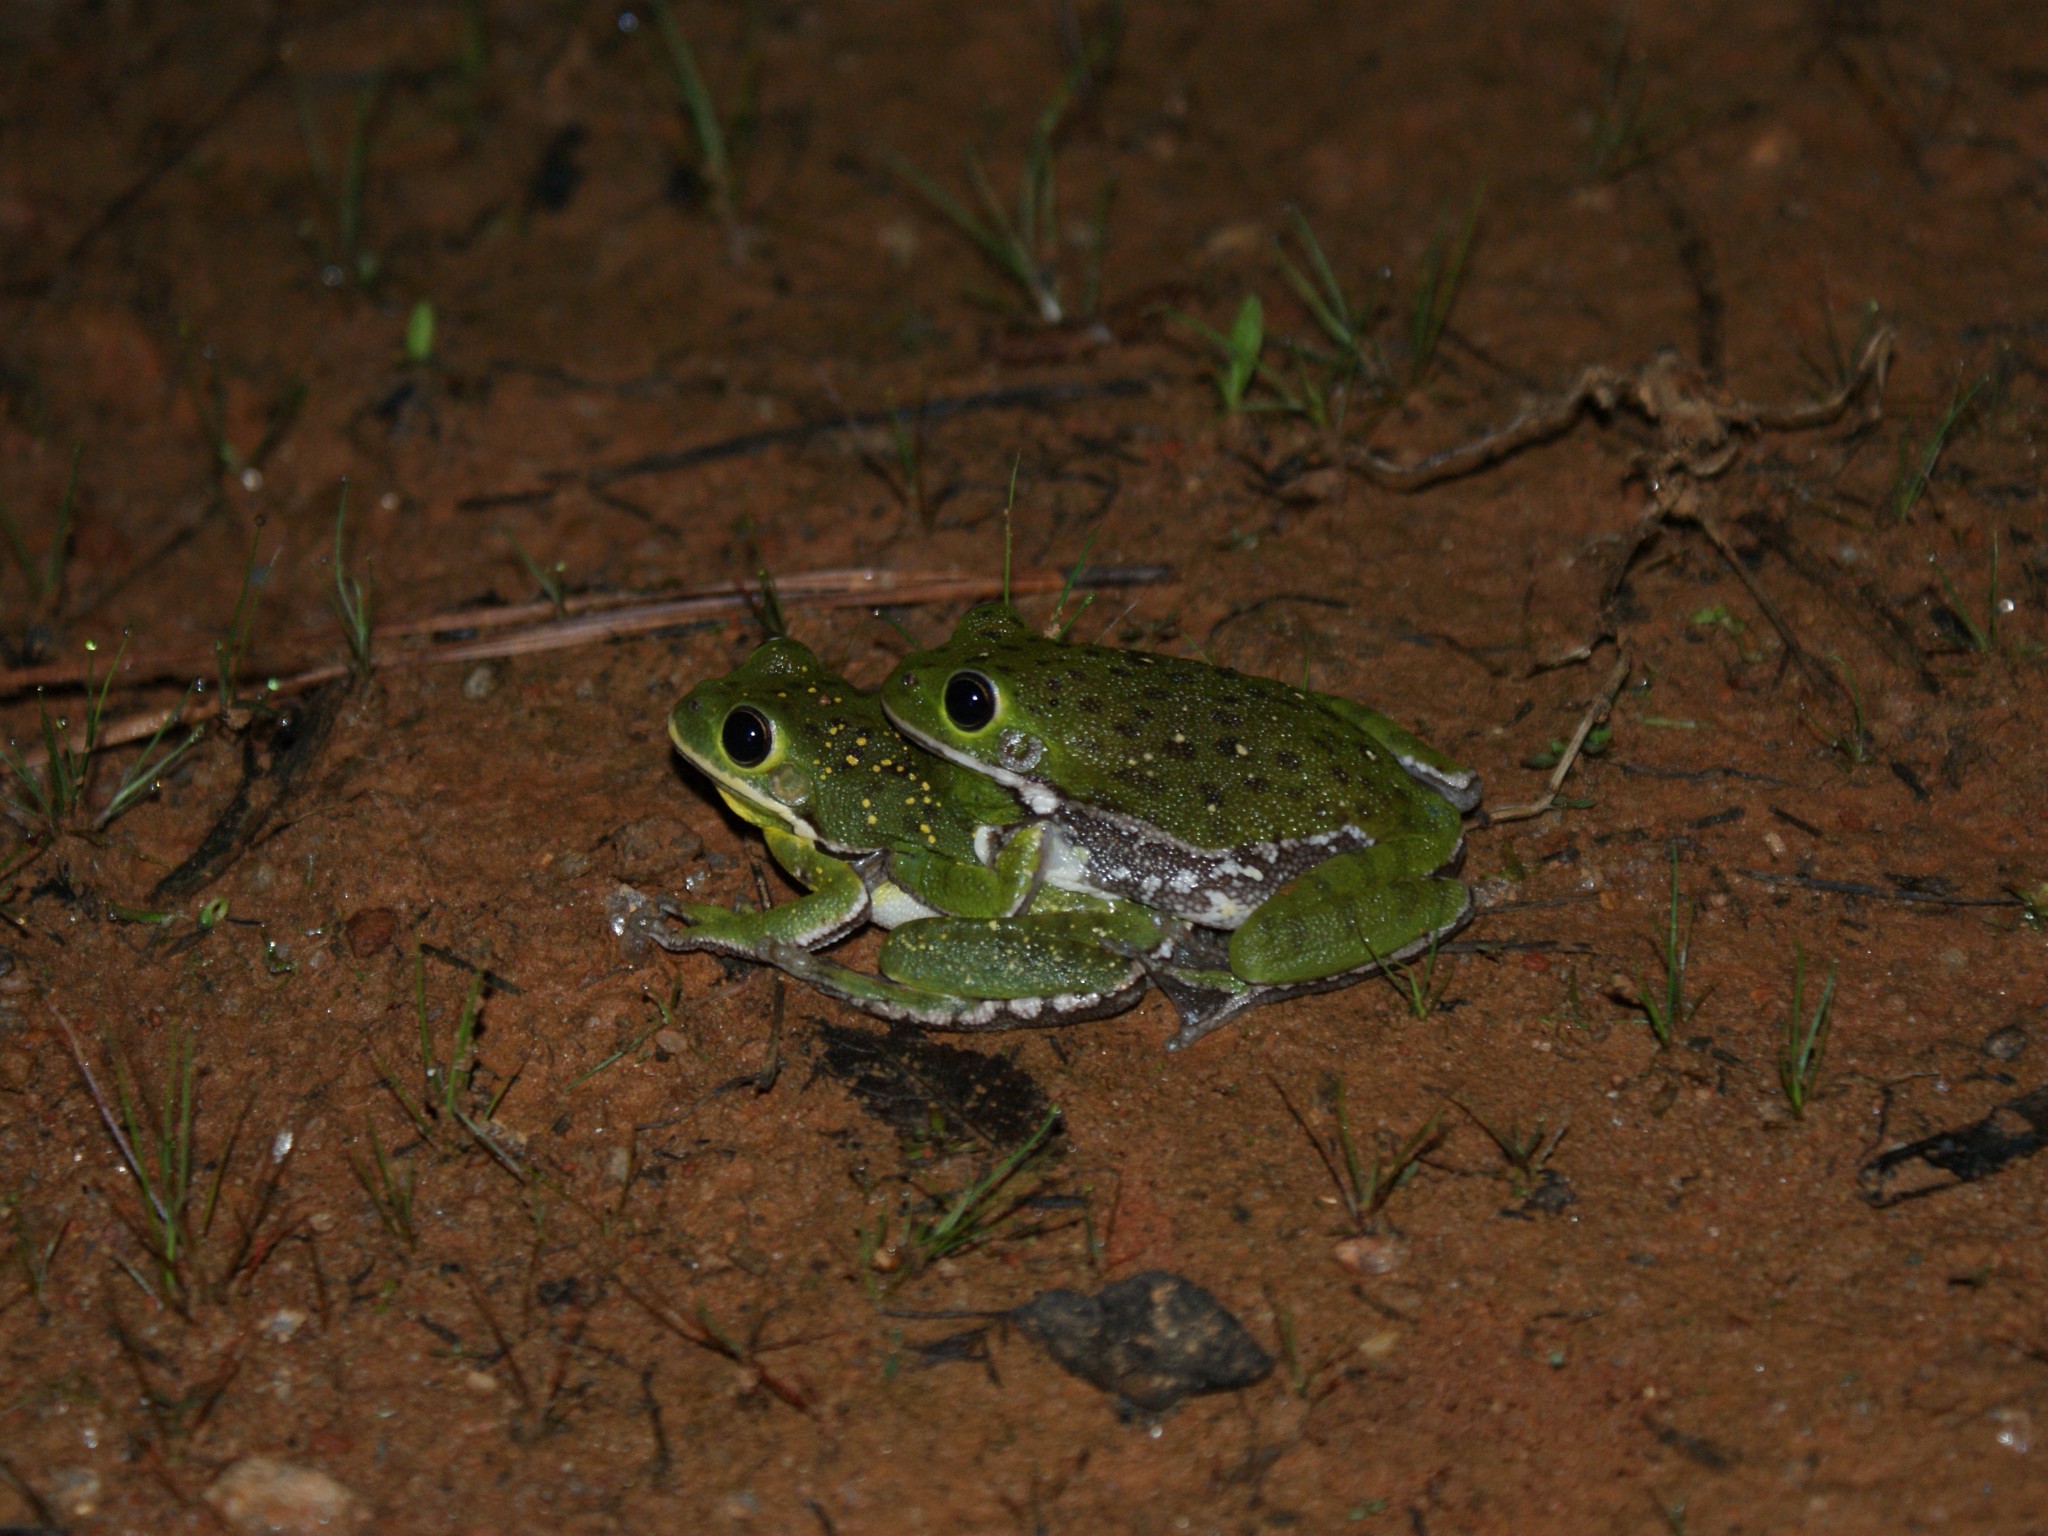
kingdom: Animalia
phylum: Chordata
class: Amphibia
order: Anura
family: Hylidae
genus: Dryophytes
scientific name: Dryophytes gratiosus
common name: Barking treefrog
